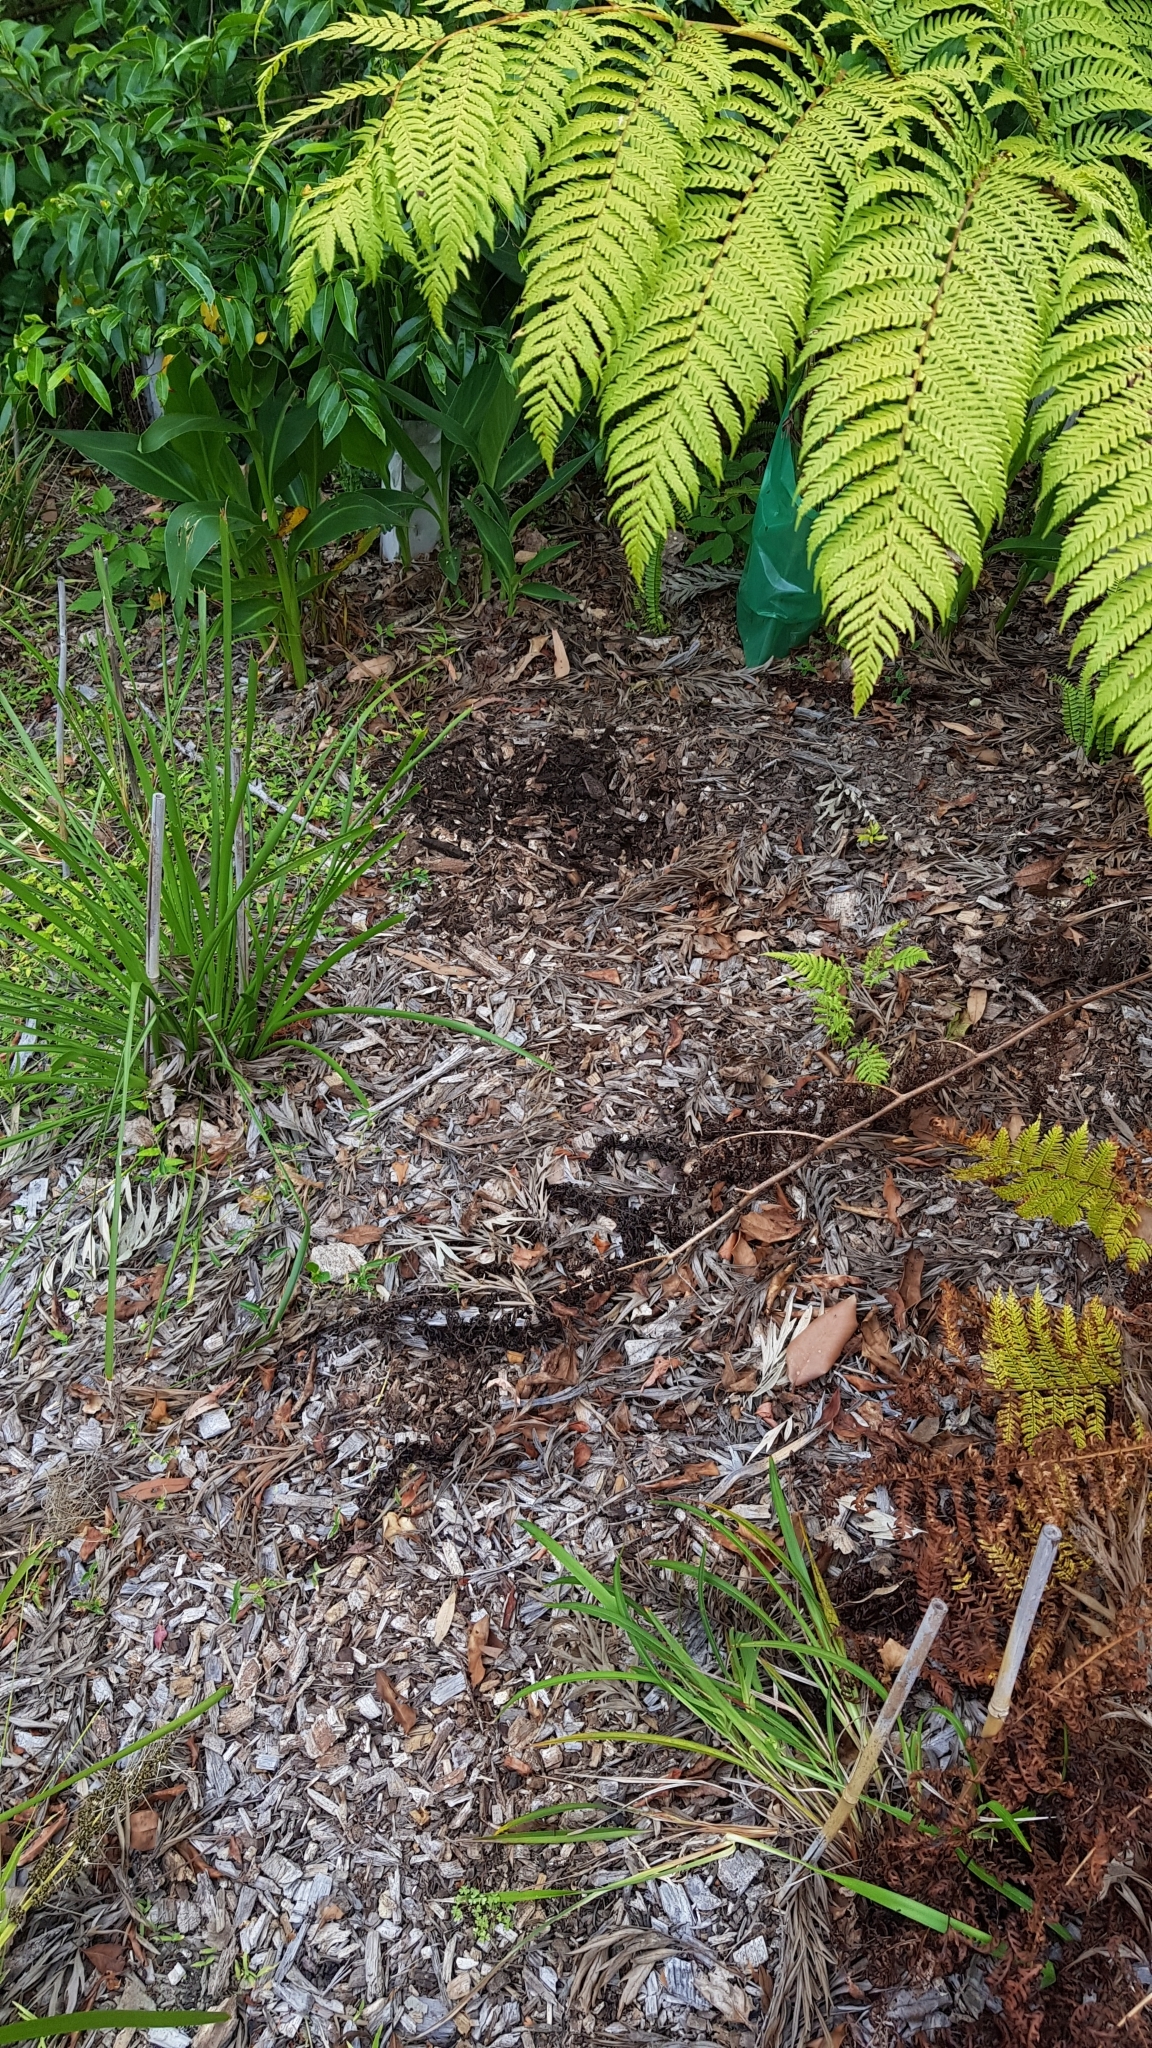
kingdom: Animalia
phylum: Chordata
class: Mammalia
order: Monotremata
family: Tachyglossidae
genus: Tachyglossus
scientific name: Tachyglossus aculeatus
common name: Short-beaked echidna
